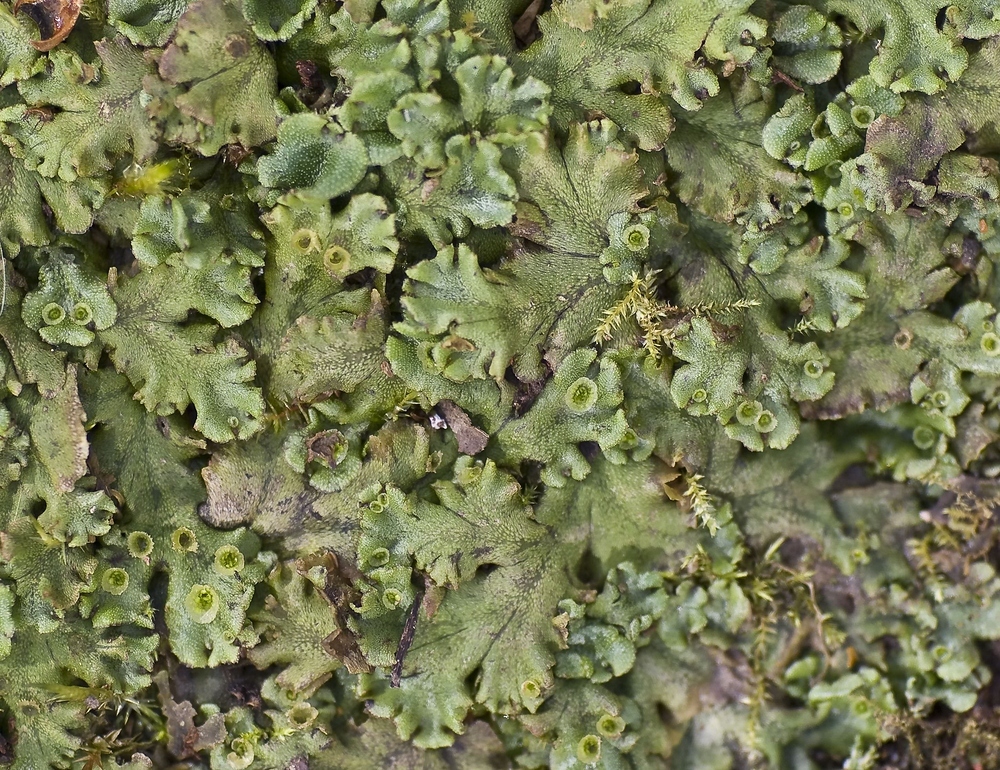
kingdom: Plantae
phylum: Marchantiophyta
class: Marchantiopsida
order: Marchantiales
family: Marchantiaceae
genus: Marchantia
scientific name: Marchantia polymorpha
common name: Common liverwort
